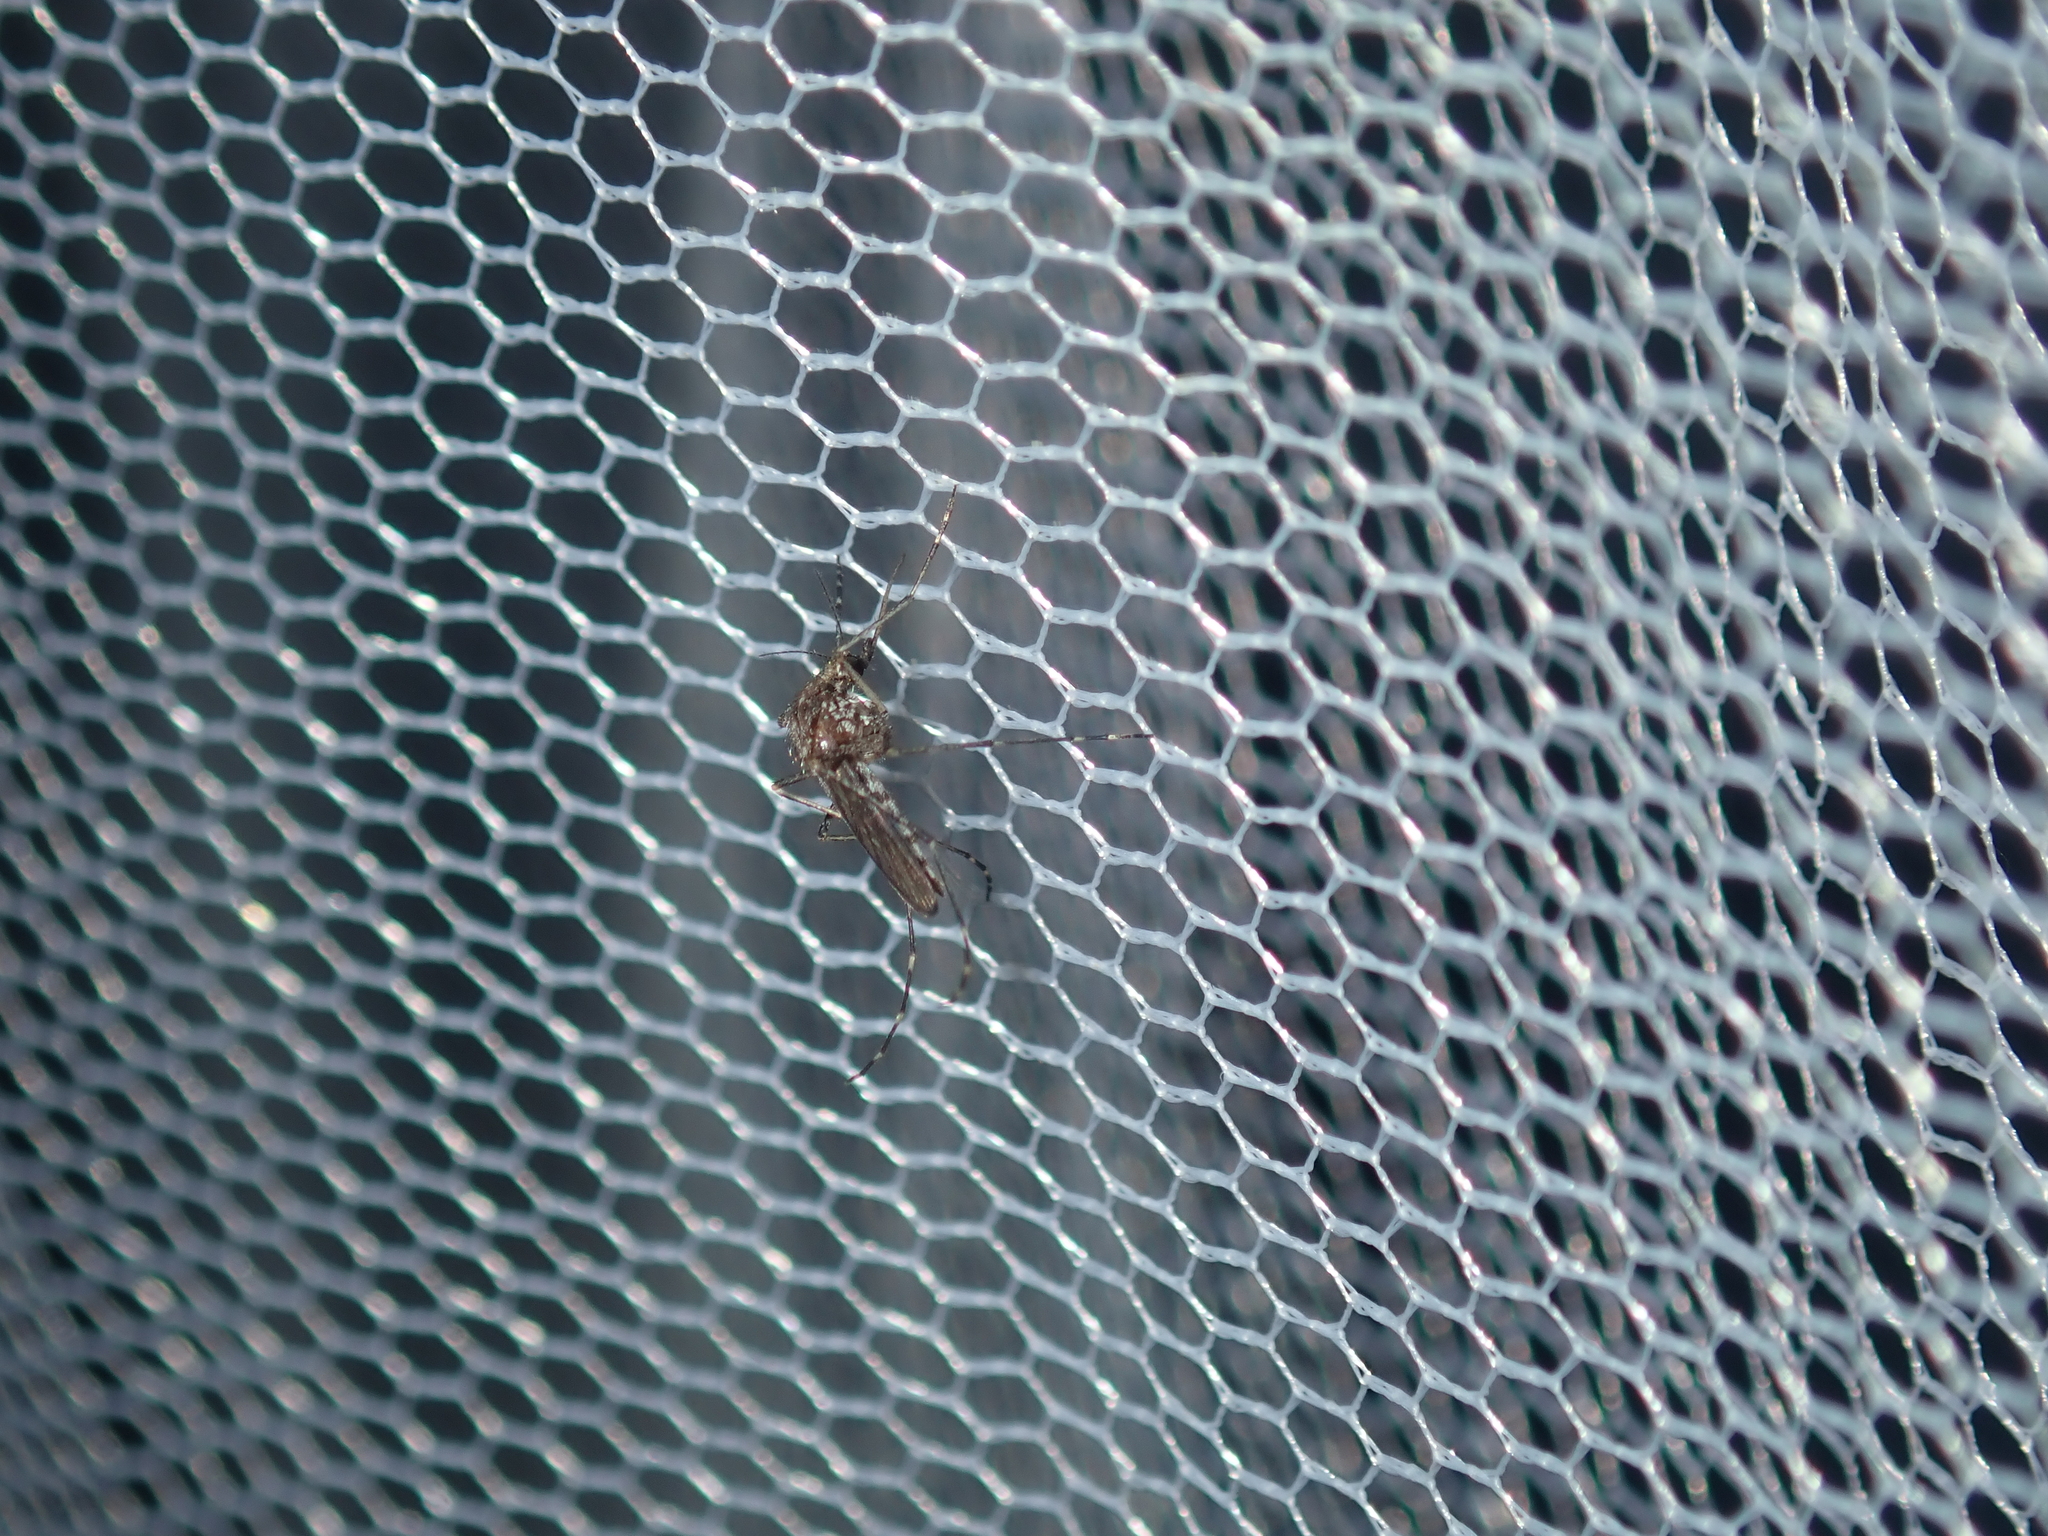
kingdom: Animalia
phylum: Arthropoda
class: Insecta
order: Diptera
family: Culicidae
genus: Aedes
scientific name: Aedes camptorhynchus
